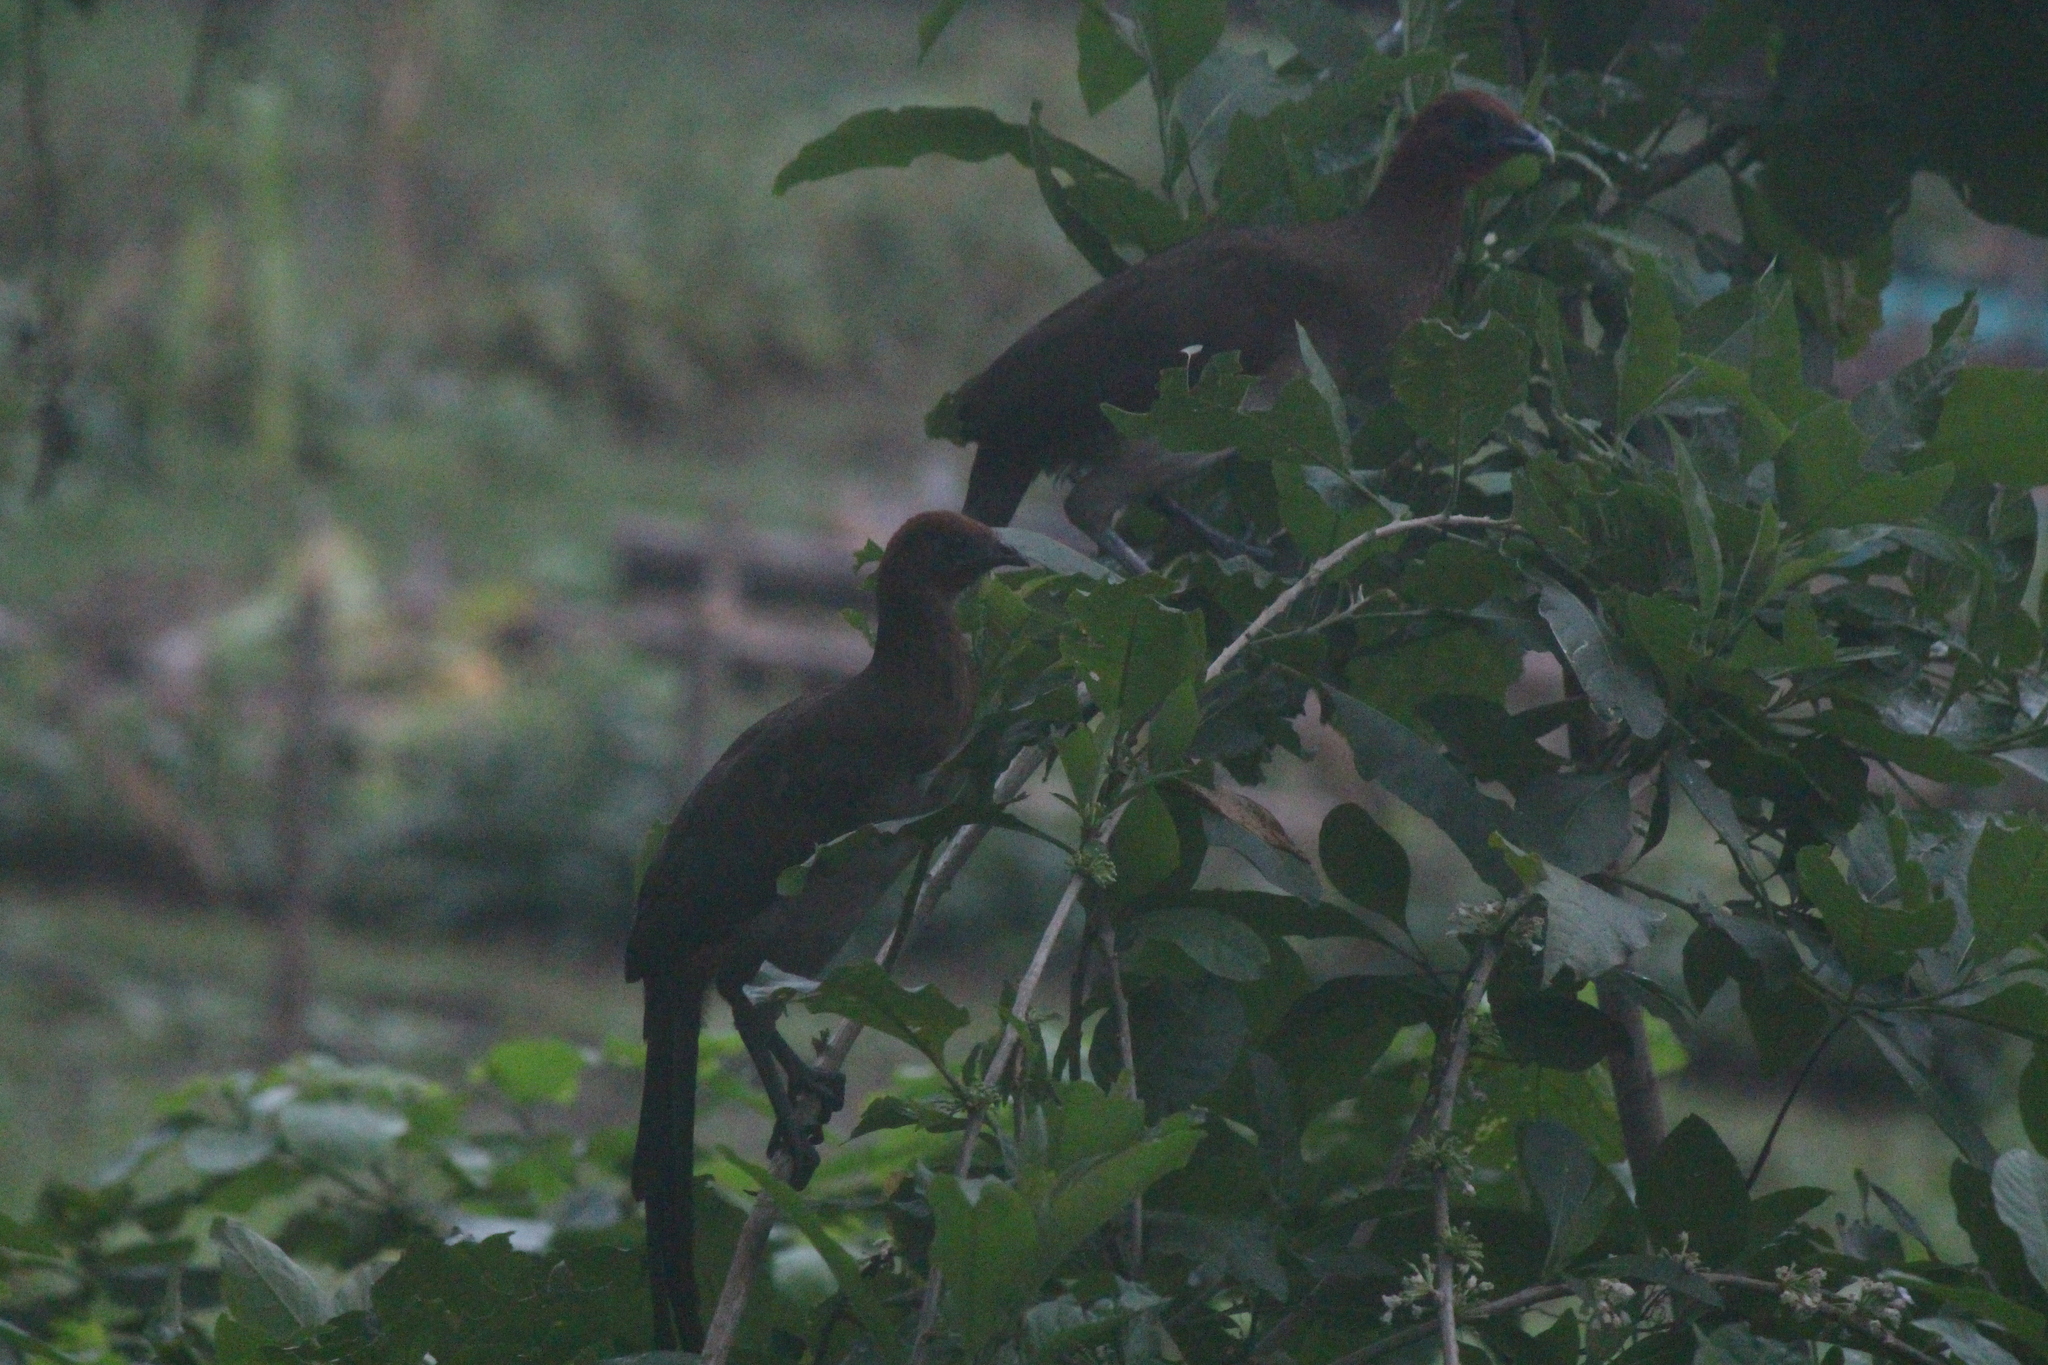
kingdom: Animalia
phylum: Chordata
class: Aves
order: Galliformes
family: Cracidae
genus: Ortalis
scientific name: Ortalis erythroptera
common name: Rufous-headed chachalaca
